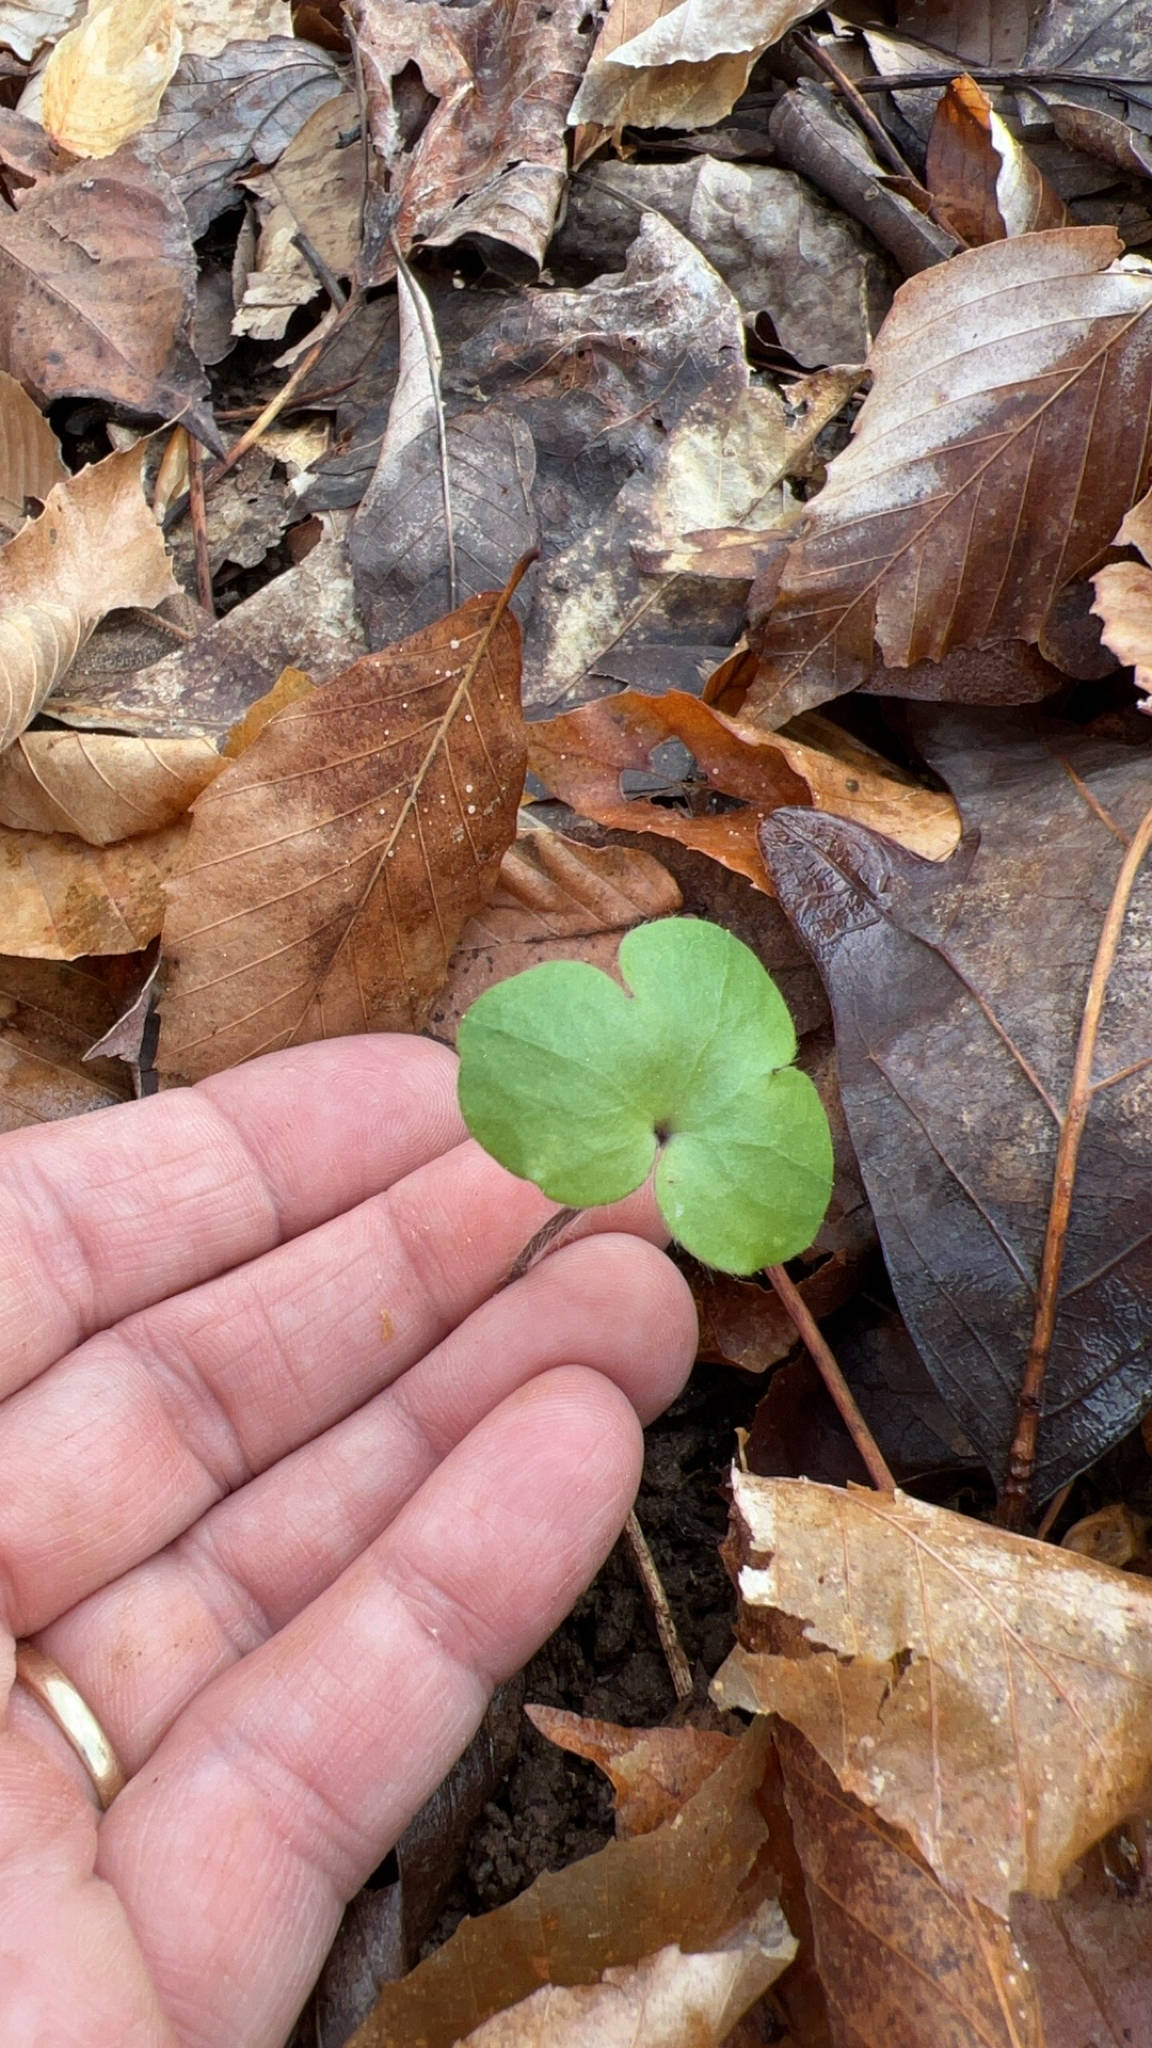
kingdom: Plantae
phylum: Tracheophyta
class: Magnoliopsida
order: Ranunculales
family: Ranunculaceae
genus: Hepatica
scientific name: Hepatica americana
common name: American hepatica
